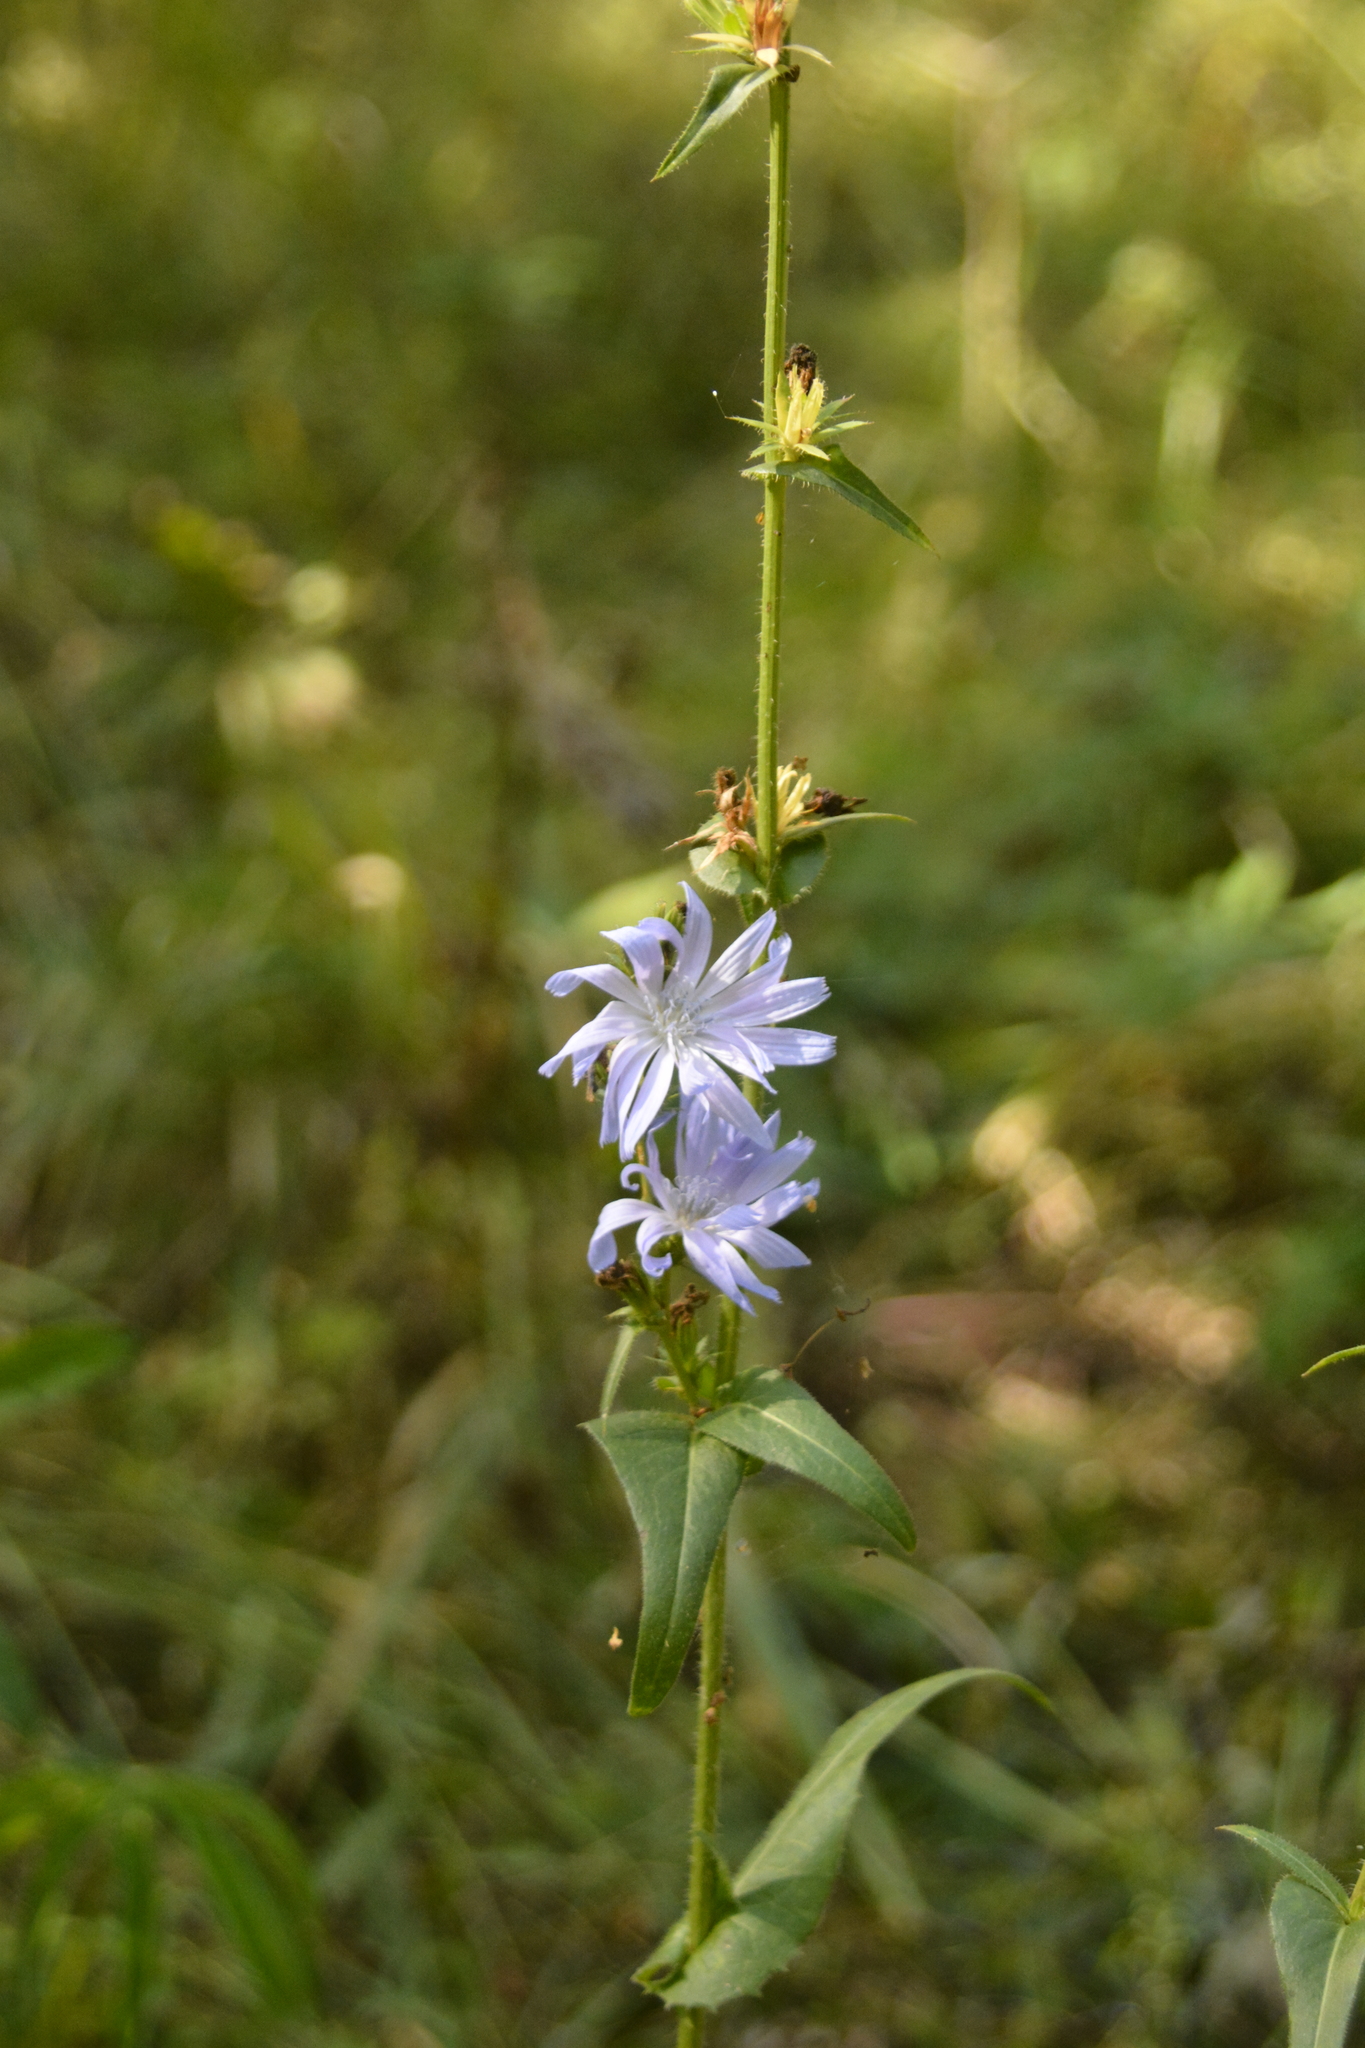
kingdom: Plantae
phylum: Tracheophyta
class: Magnoliopsida
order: Asterales
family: Asteraceae
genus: Cichorium
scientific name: Cichorium intybus
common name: Chicory
